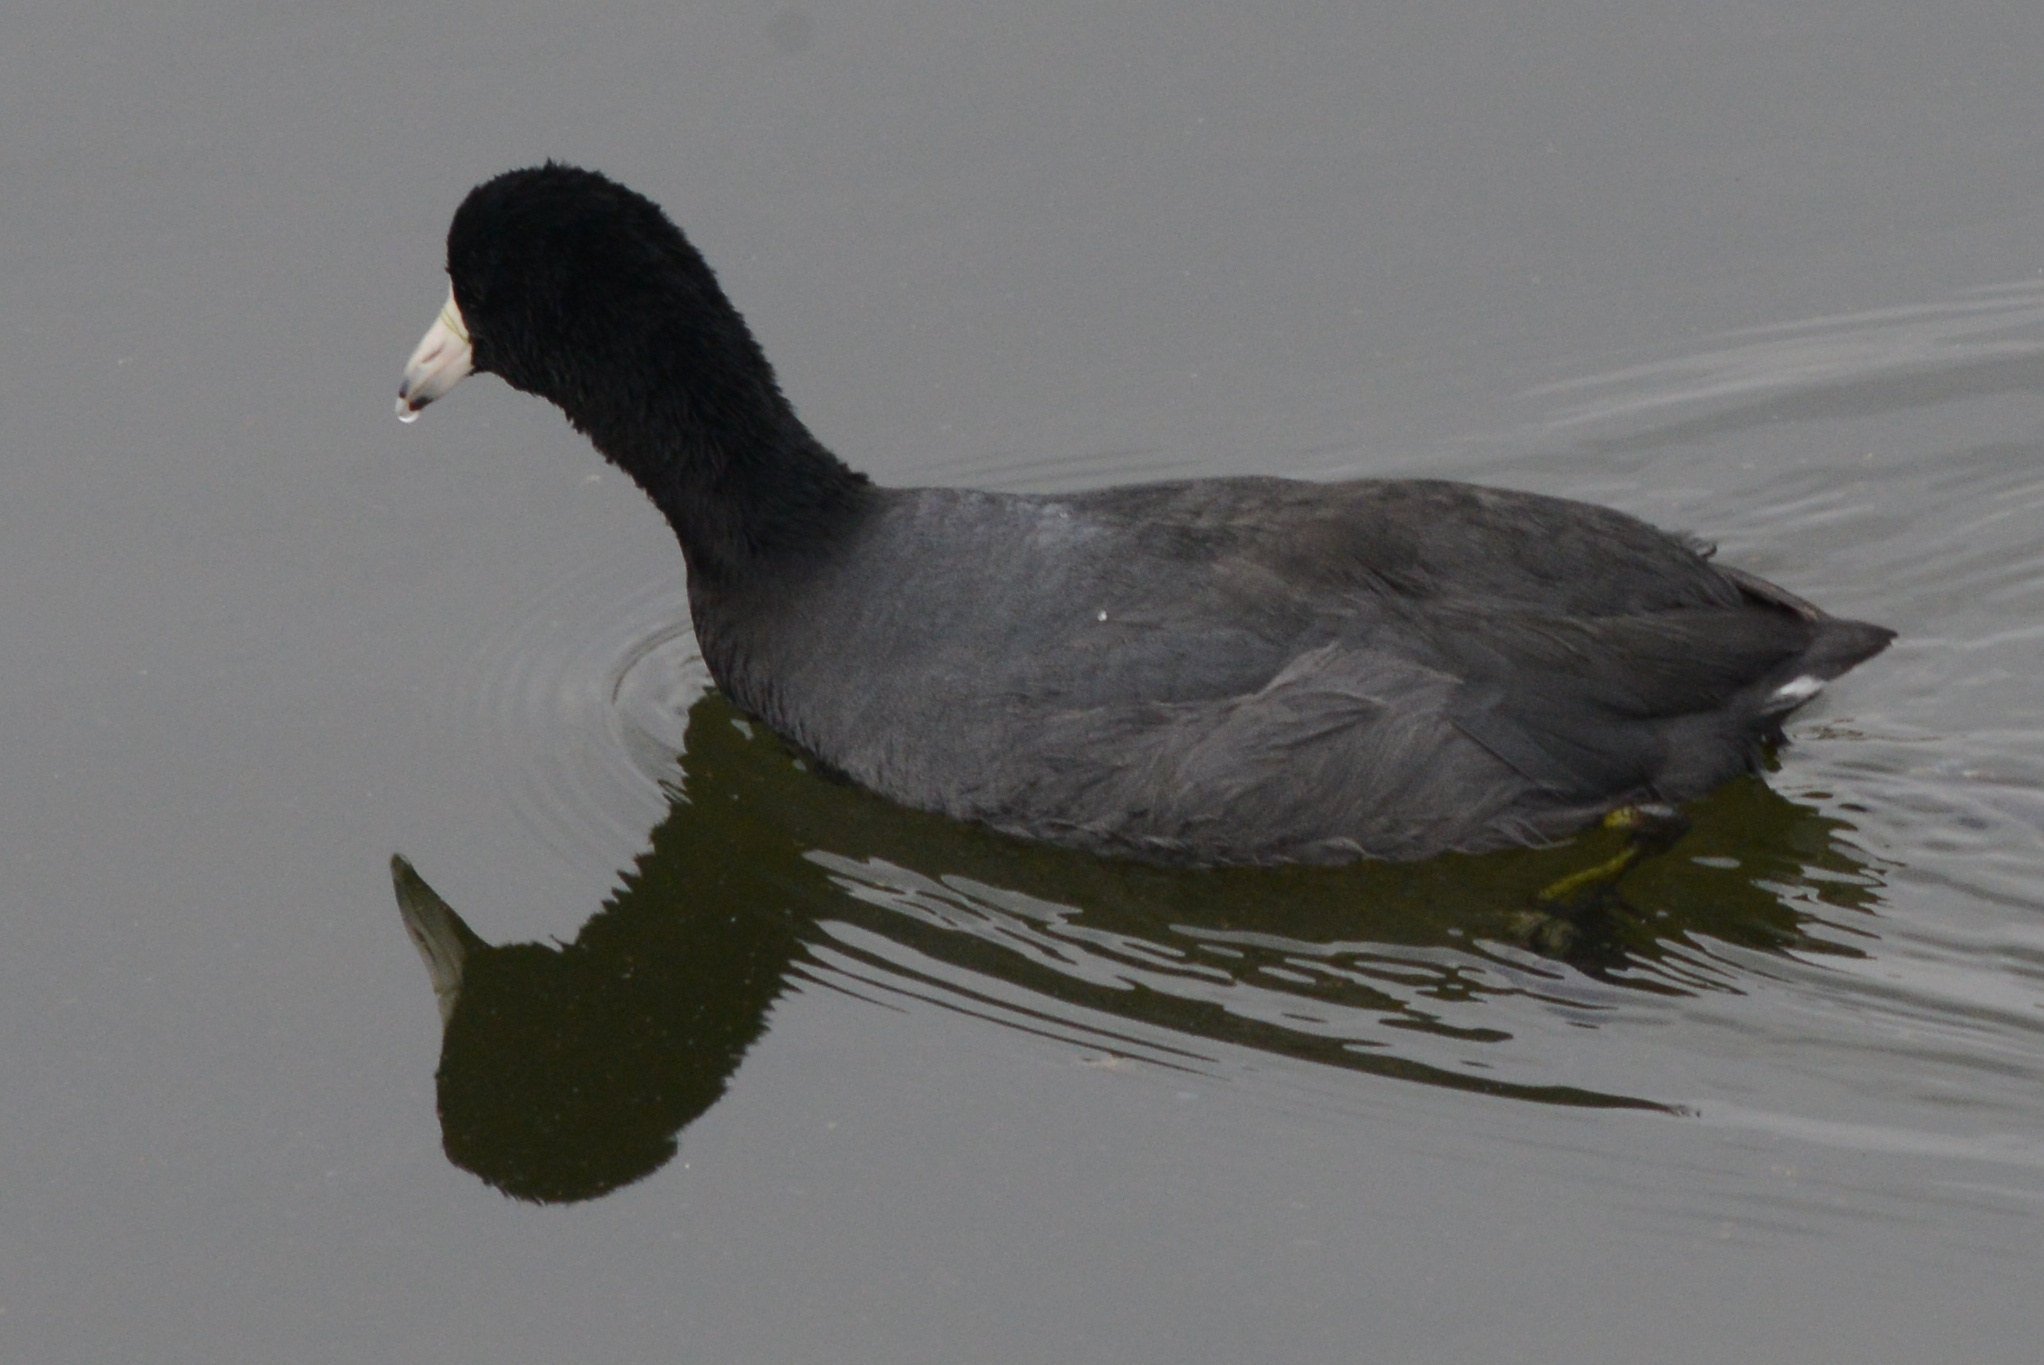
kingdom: Animalia
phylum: Chordata
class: Aves
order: Gruiformes
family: Rallidae
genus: Fulica
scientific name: Fulica americana
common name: American coot
